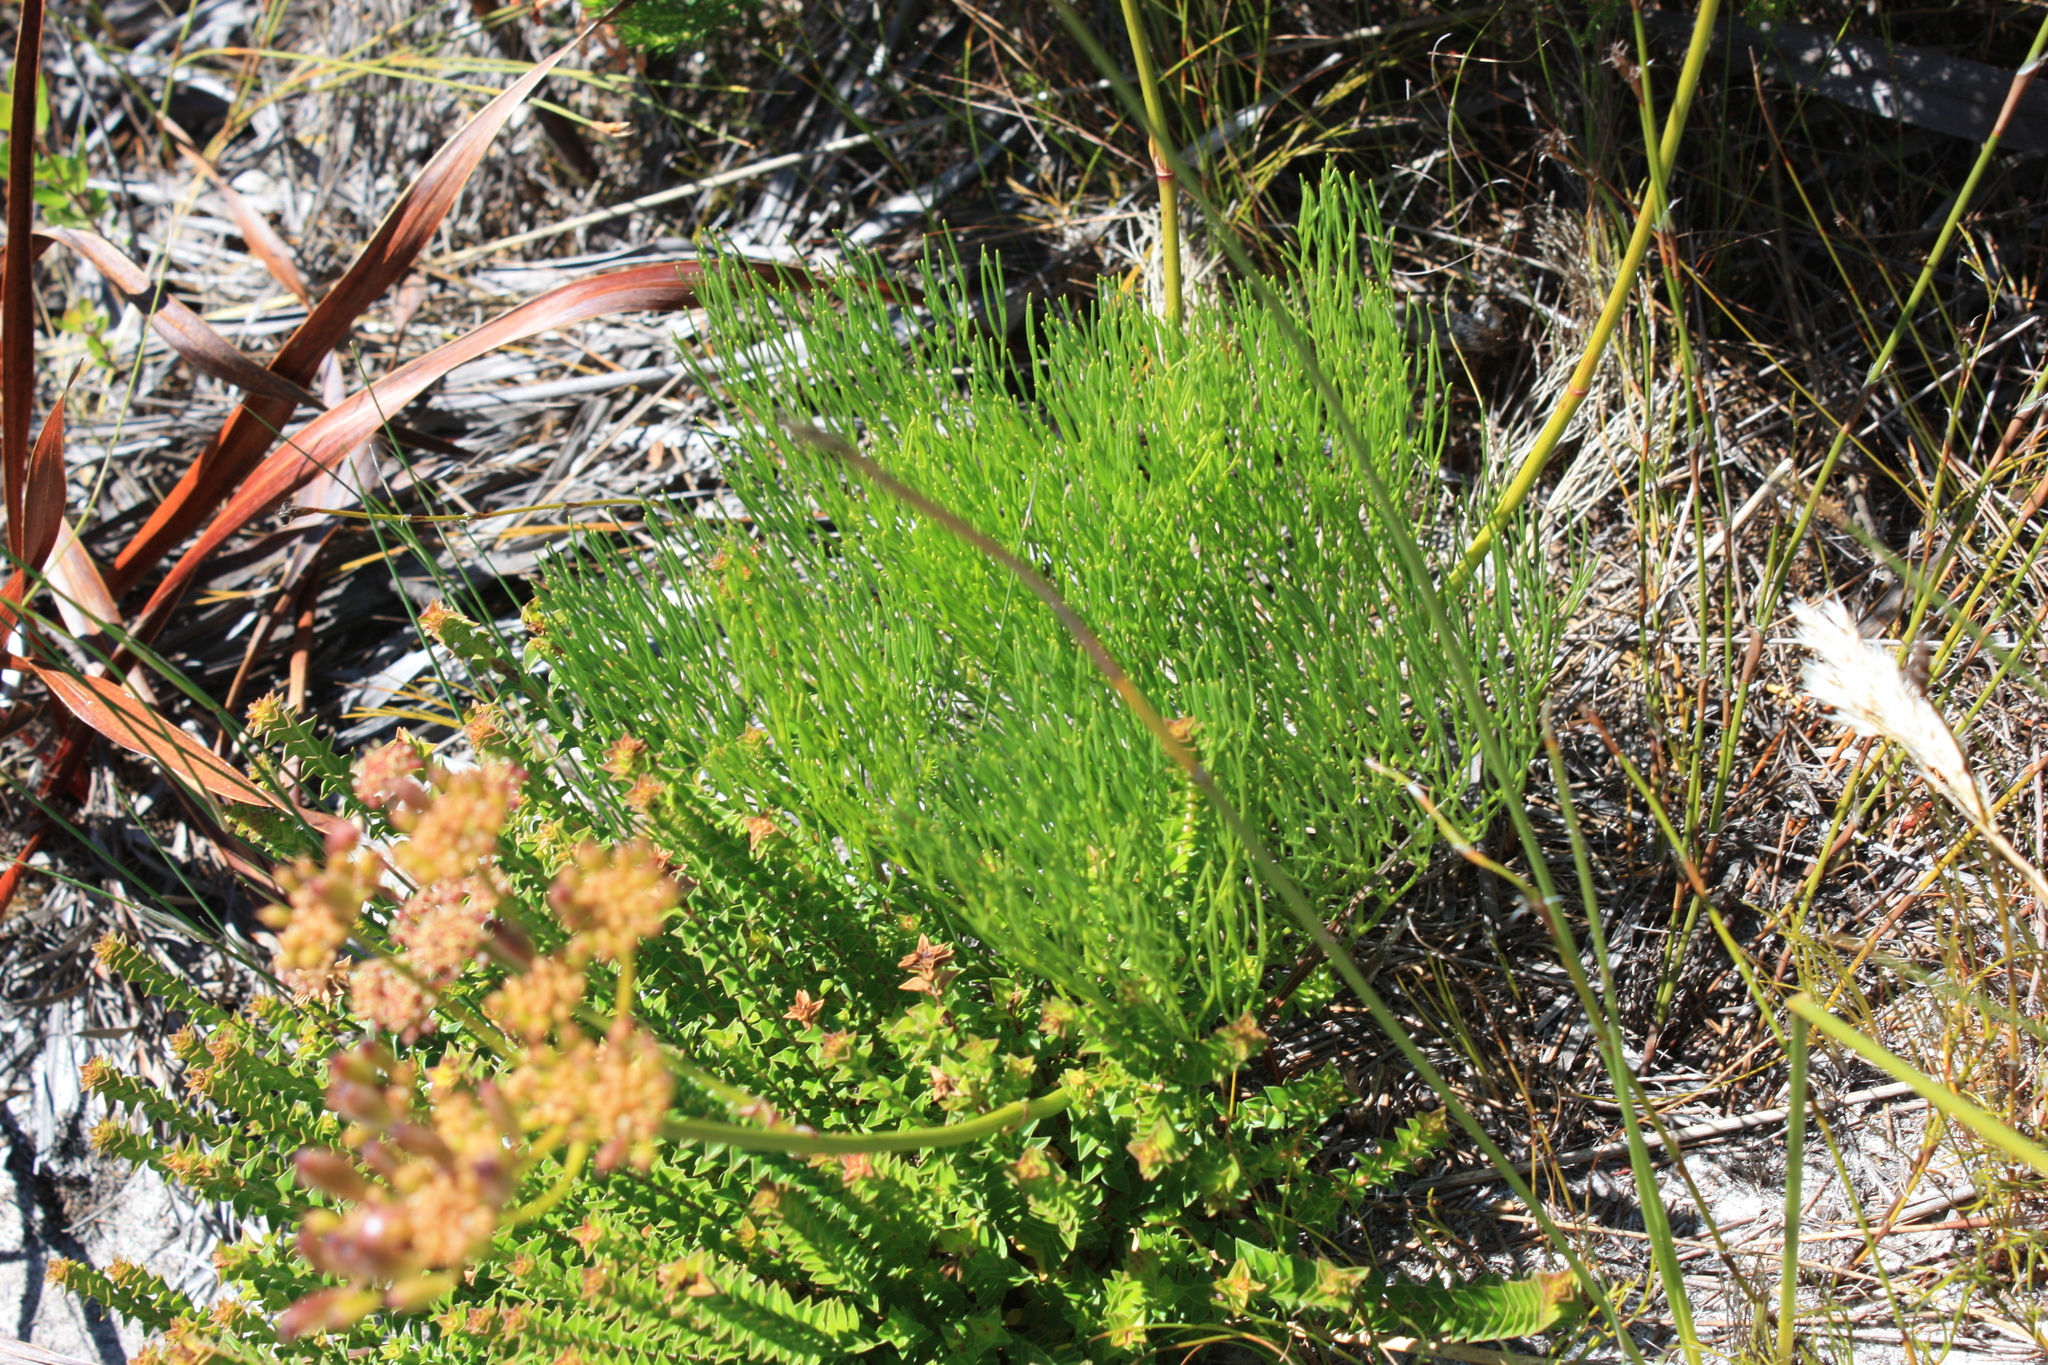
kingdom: Plantae
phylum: Tracheophyta
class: Magnoliopsida
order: Apiales
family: Apiaceae
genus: Nanobubon
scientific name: Nanobubon strictum
